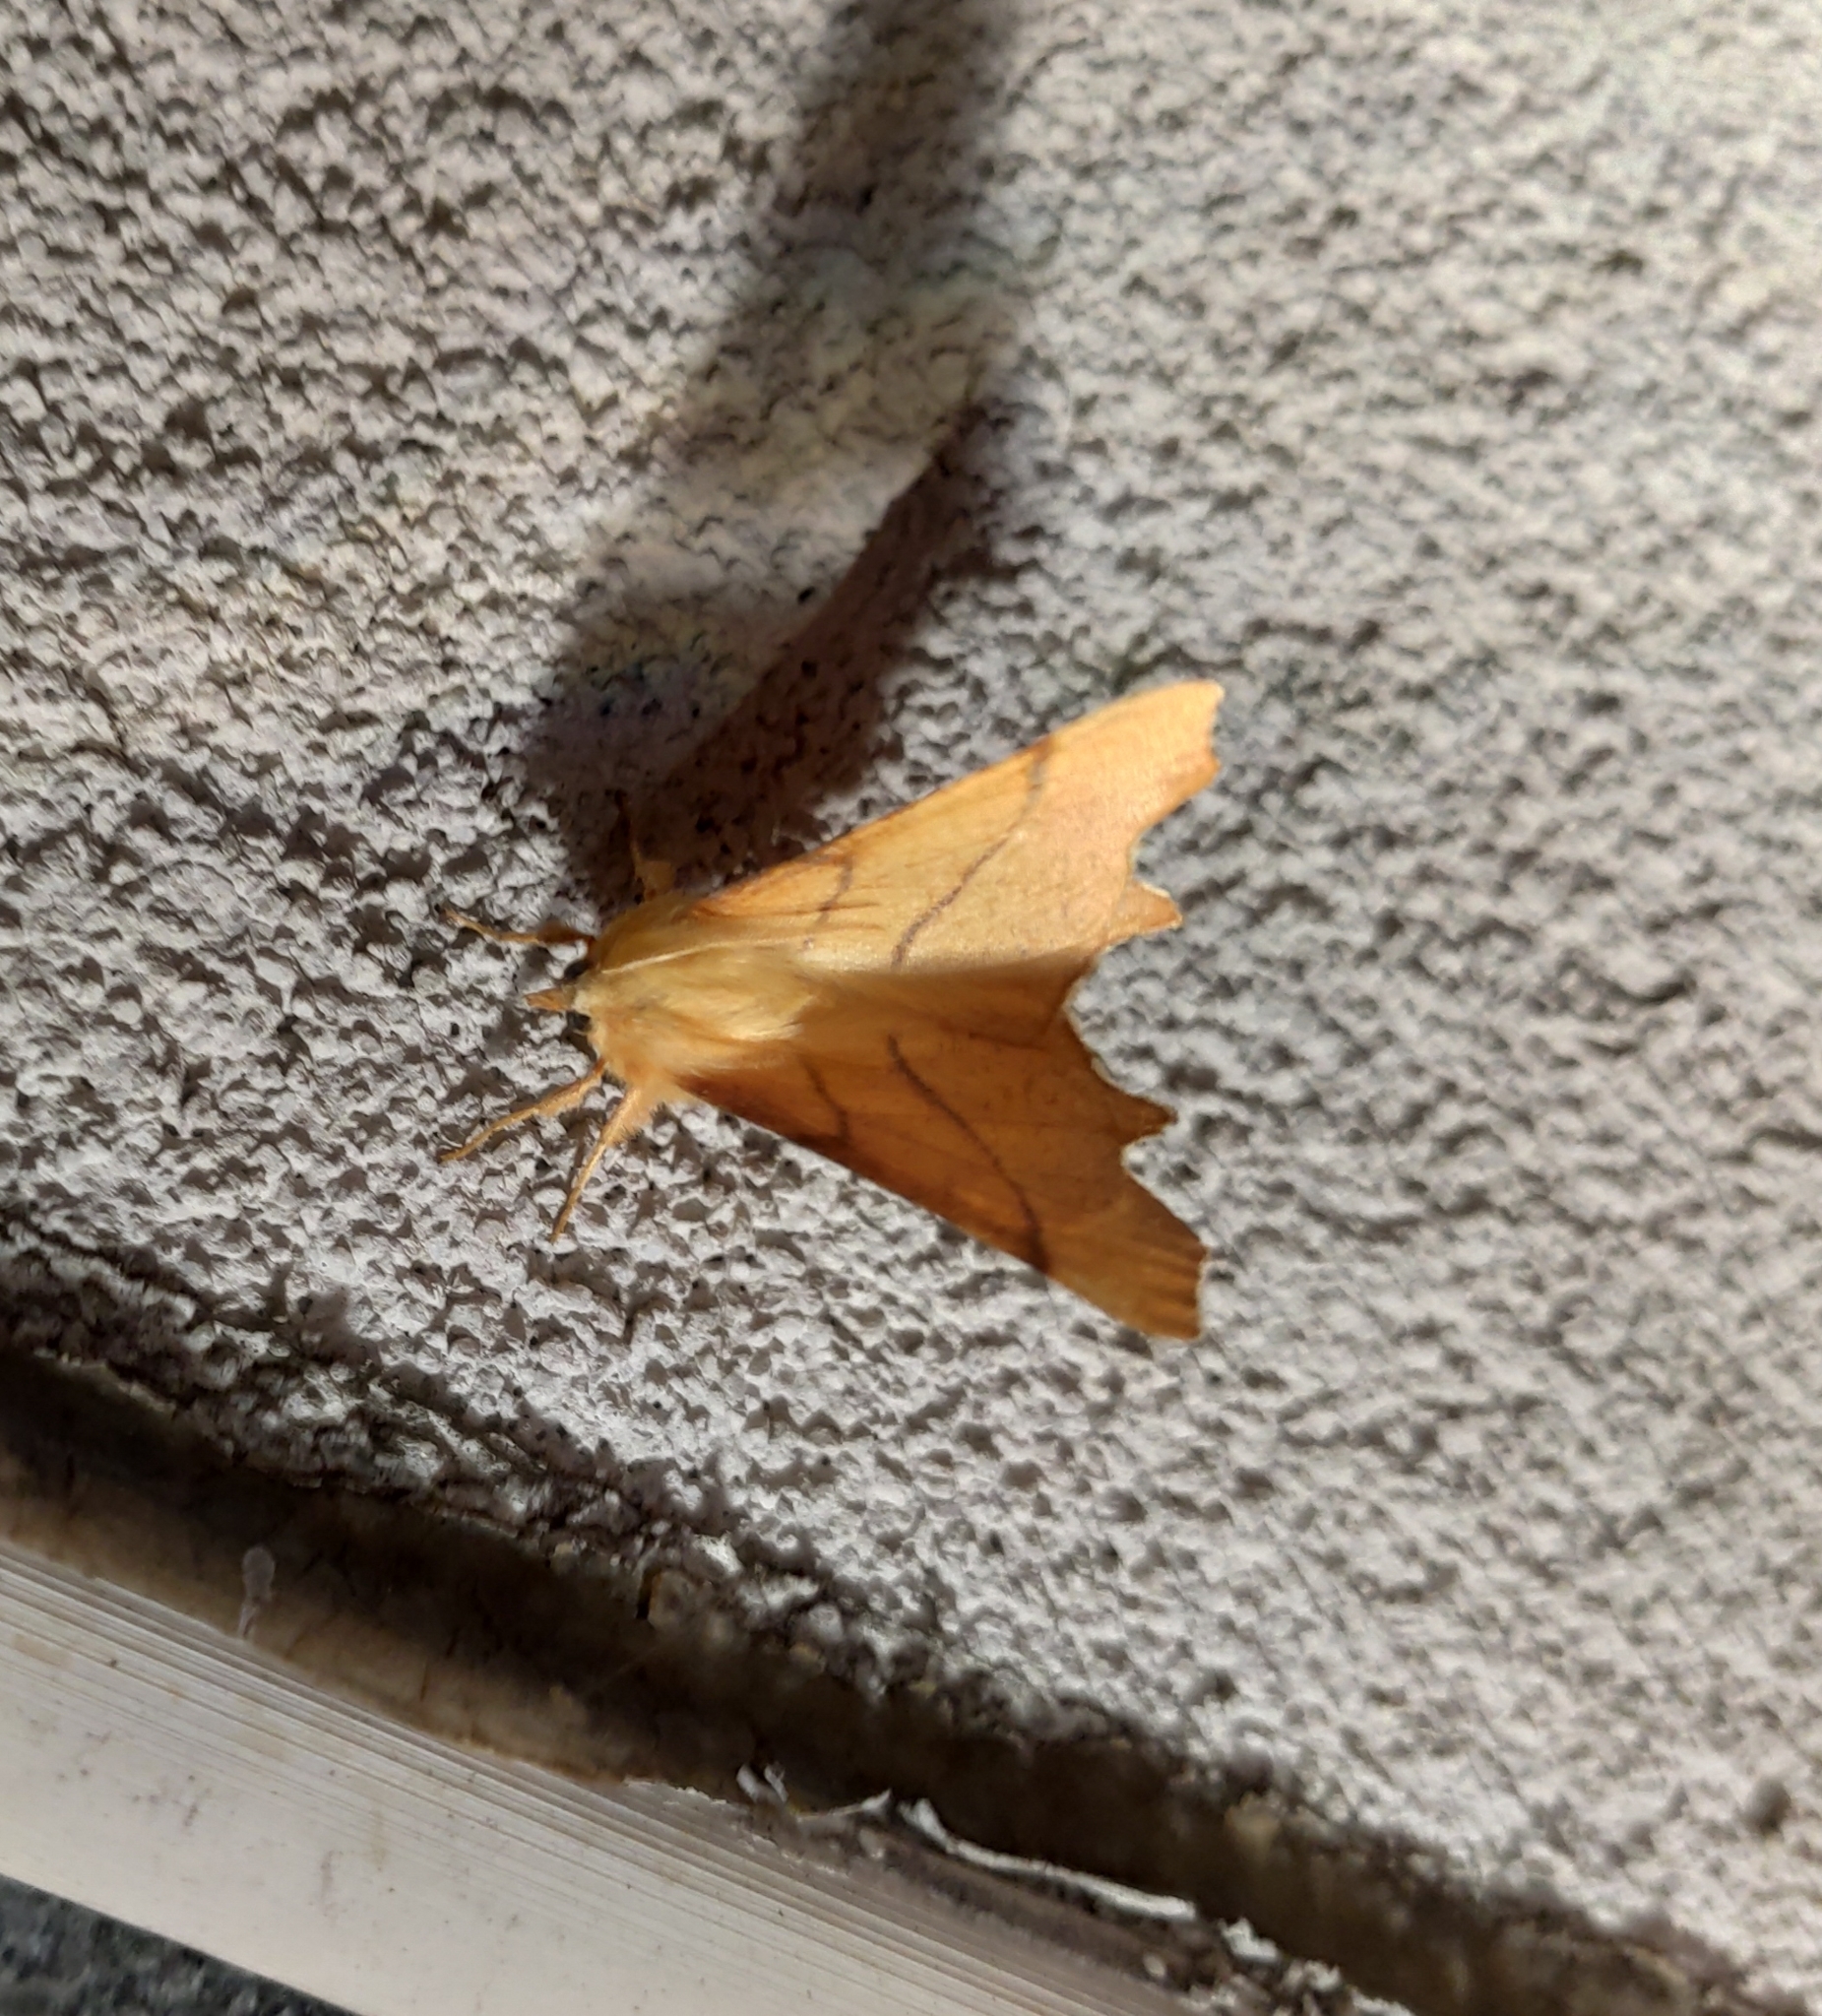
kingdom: Animalia
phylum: Arthropoda
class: Insecta
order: Lepidoptera
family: Geometridae
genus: Ennomos
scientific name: Ennomos erosaria
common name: September thorn
